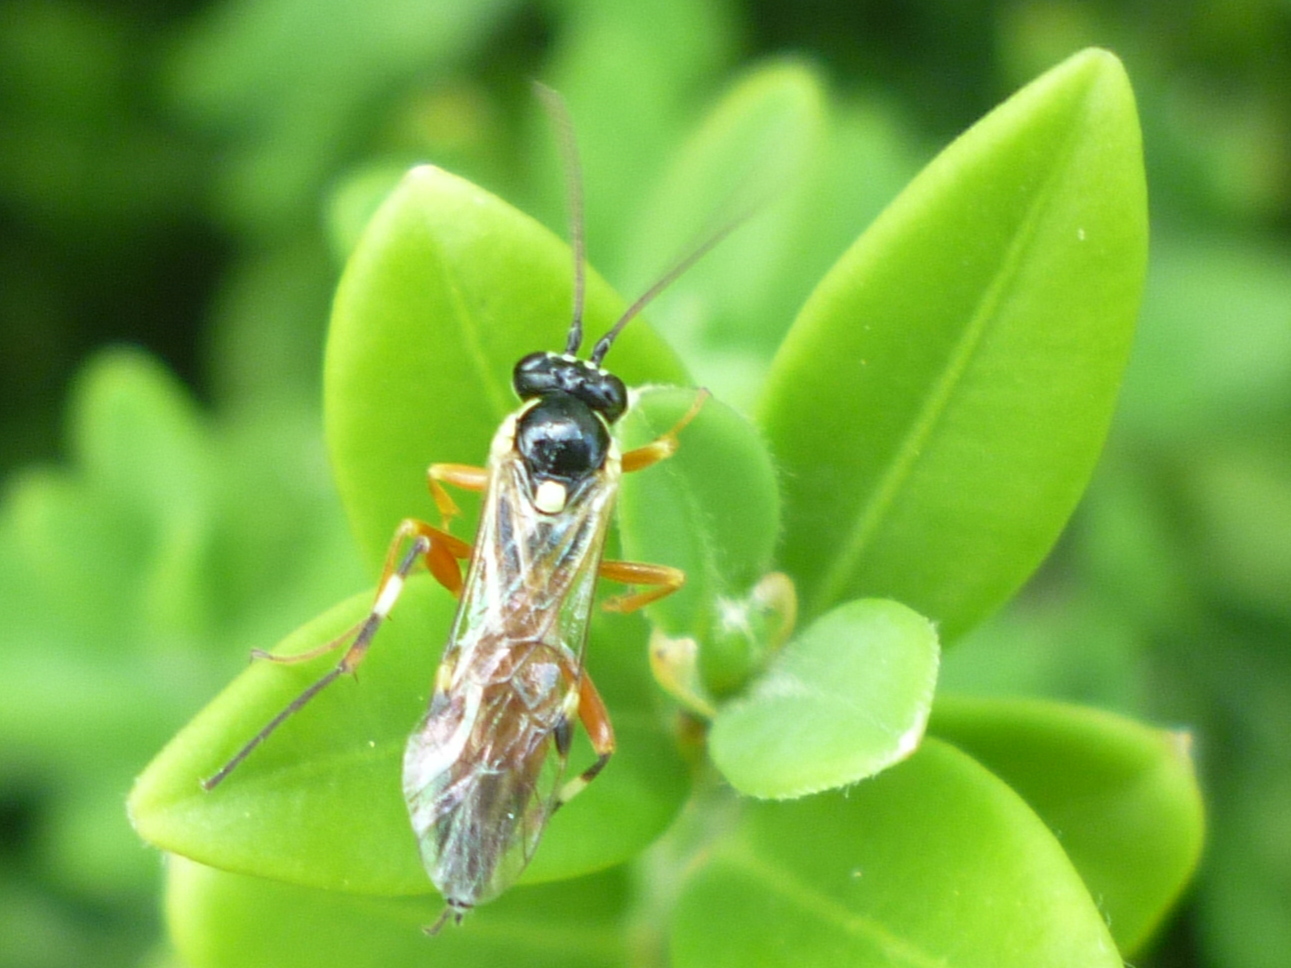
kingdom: Animalia
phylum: Arthropoda
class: Insecta
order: Hymenoptera
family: Ichneumonidae
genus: Diplazon
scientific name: Diplazon laetatorius
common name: Parasitoid wasp
